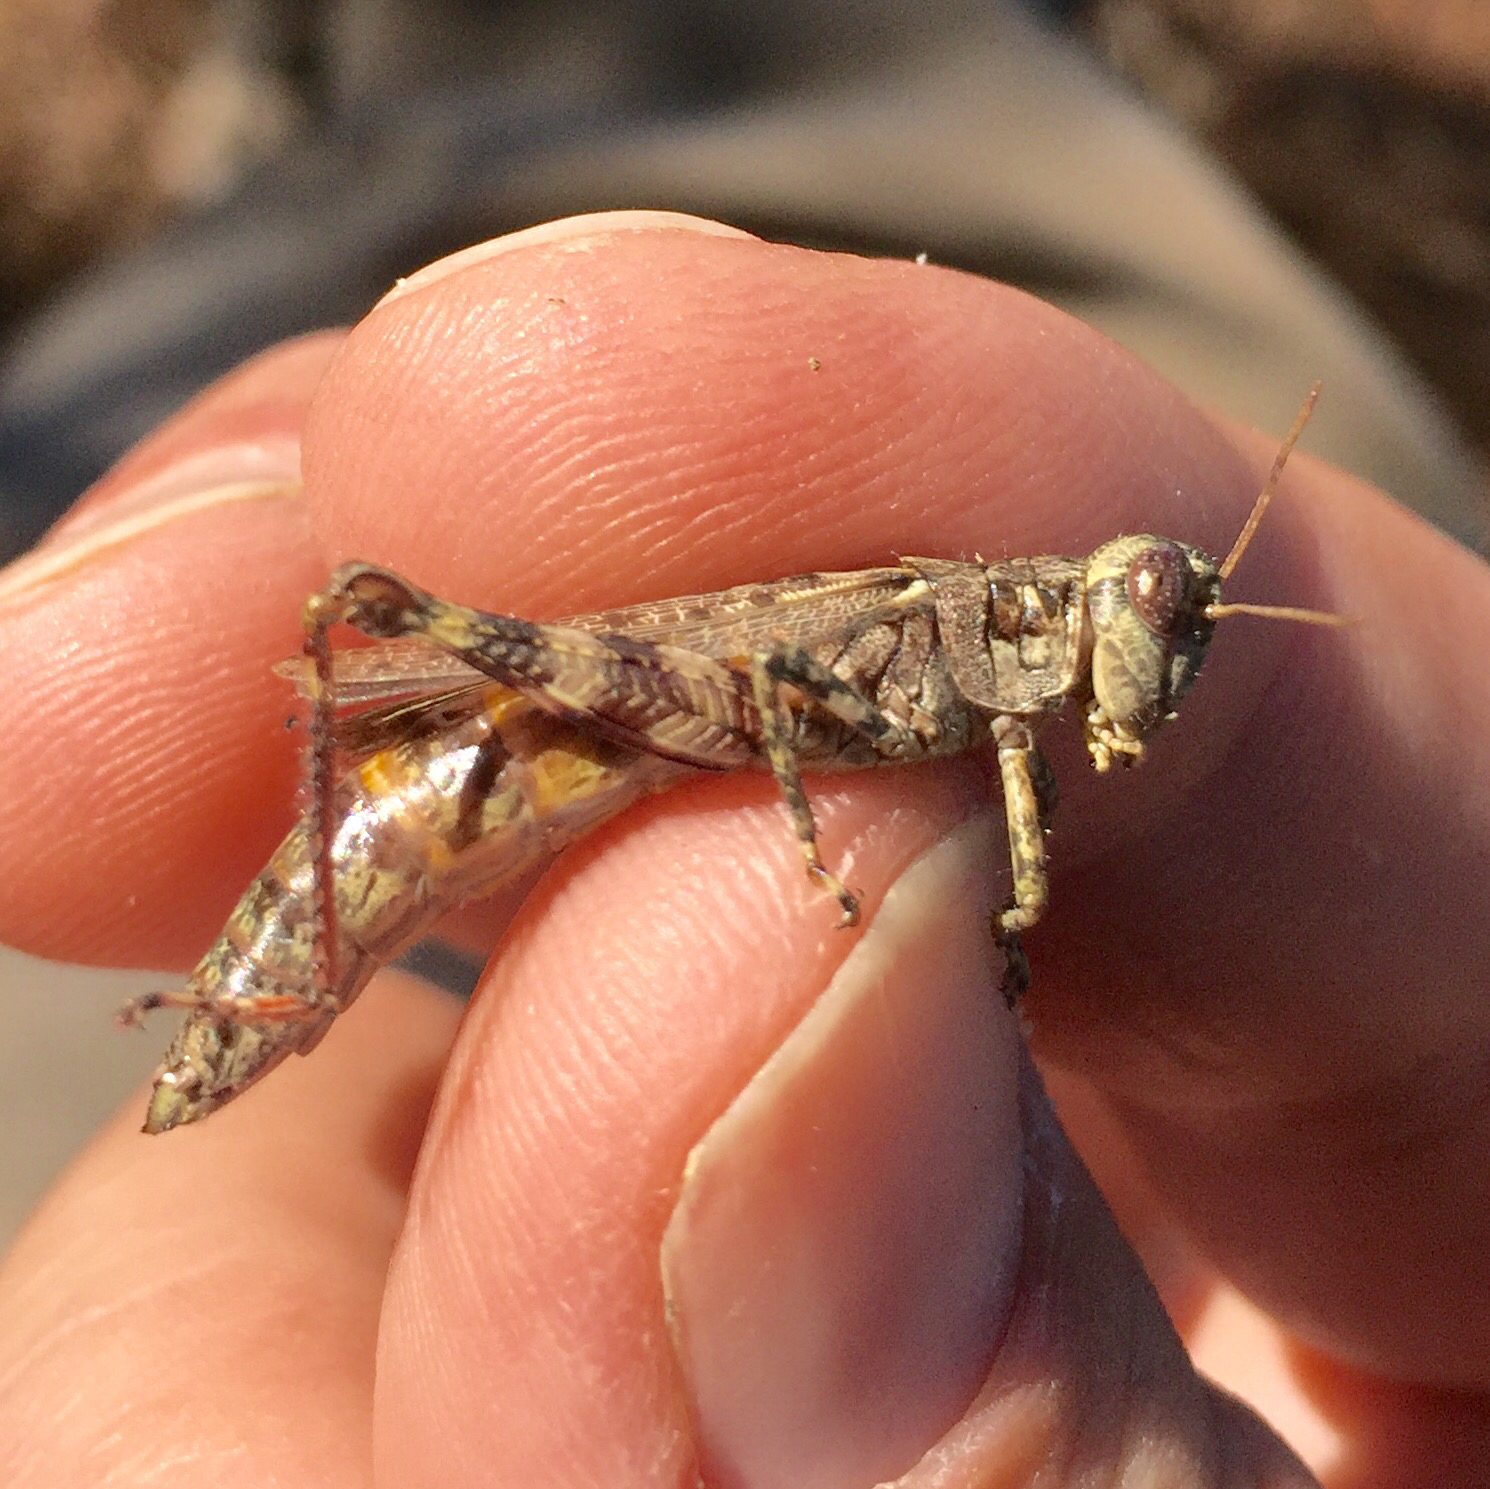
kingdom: Animalia
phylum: Arthropoda
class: Insecta
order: Orthoptera
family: Acrididae
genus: Melanoplus
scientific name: Melanoplus punctulatus
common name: Pine-tree spur-throat grasshopper
